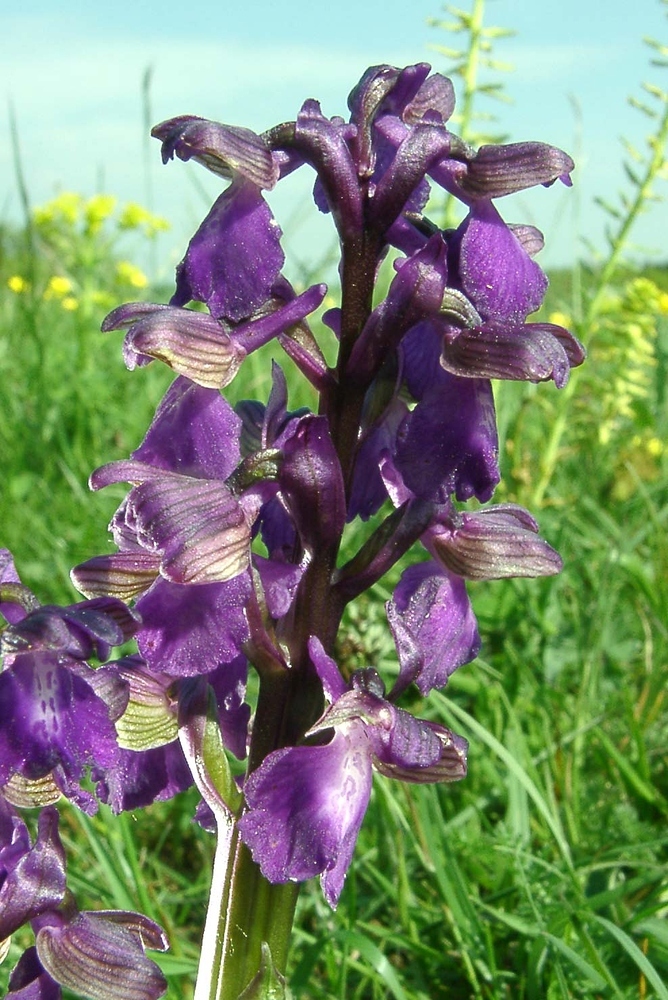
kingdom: Plantae
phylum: Tracheophyta
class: Liliopsida
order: Asparagales
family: Orchidaceae
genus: Anacamptis
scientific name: Anacamptis morio
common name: Green-winged orchid
